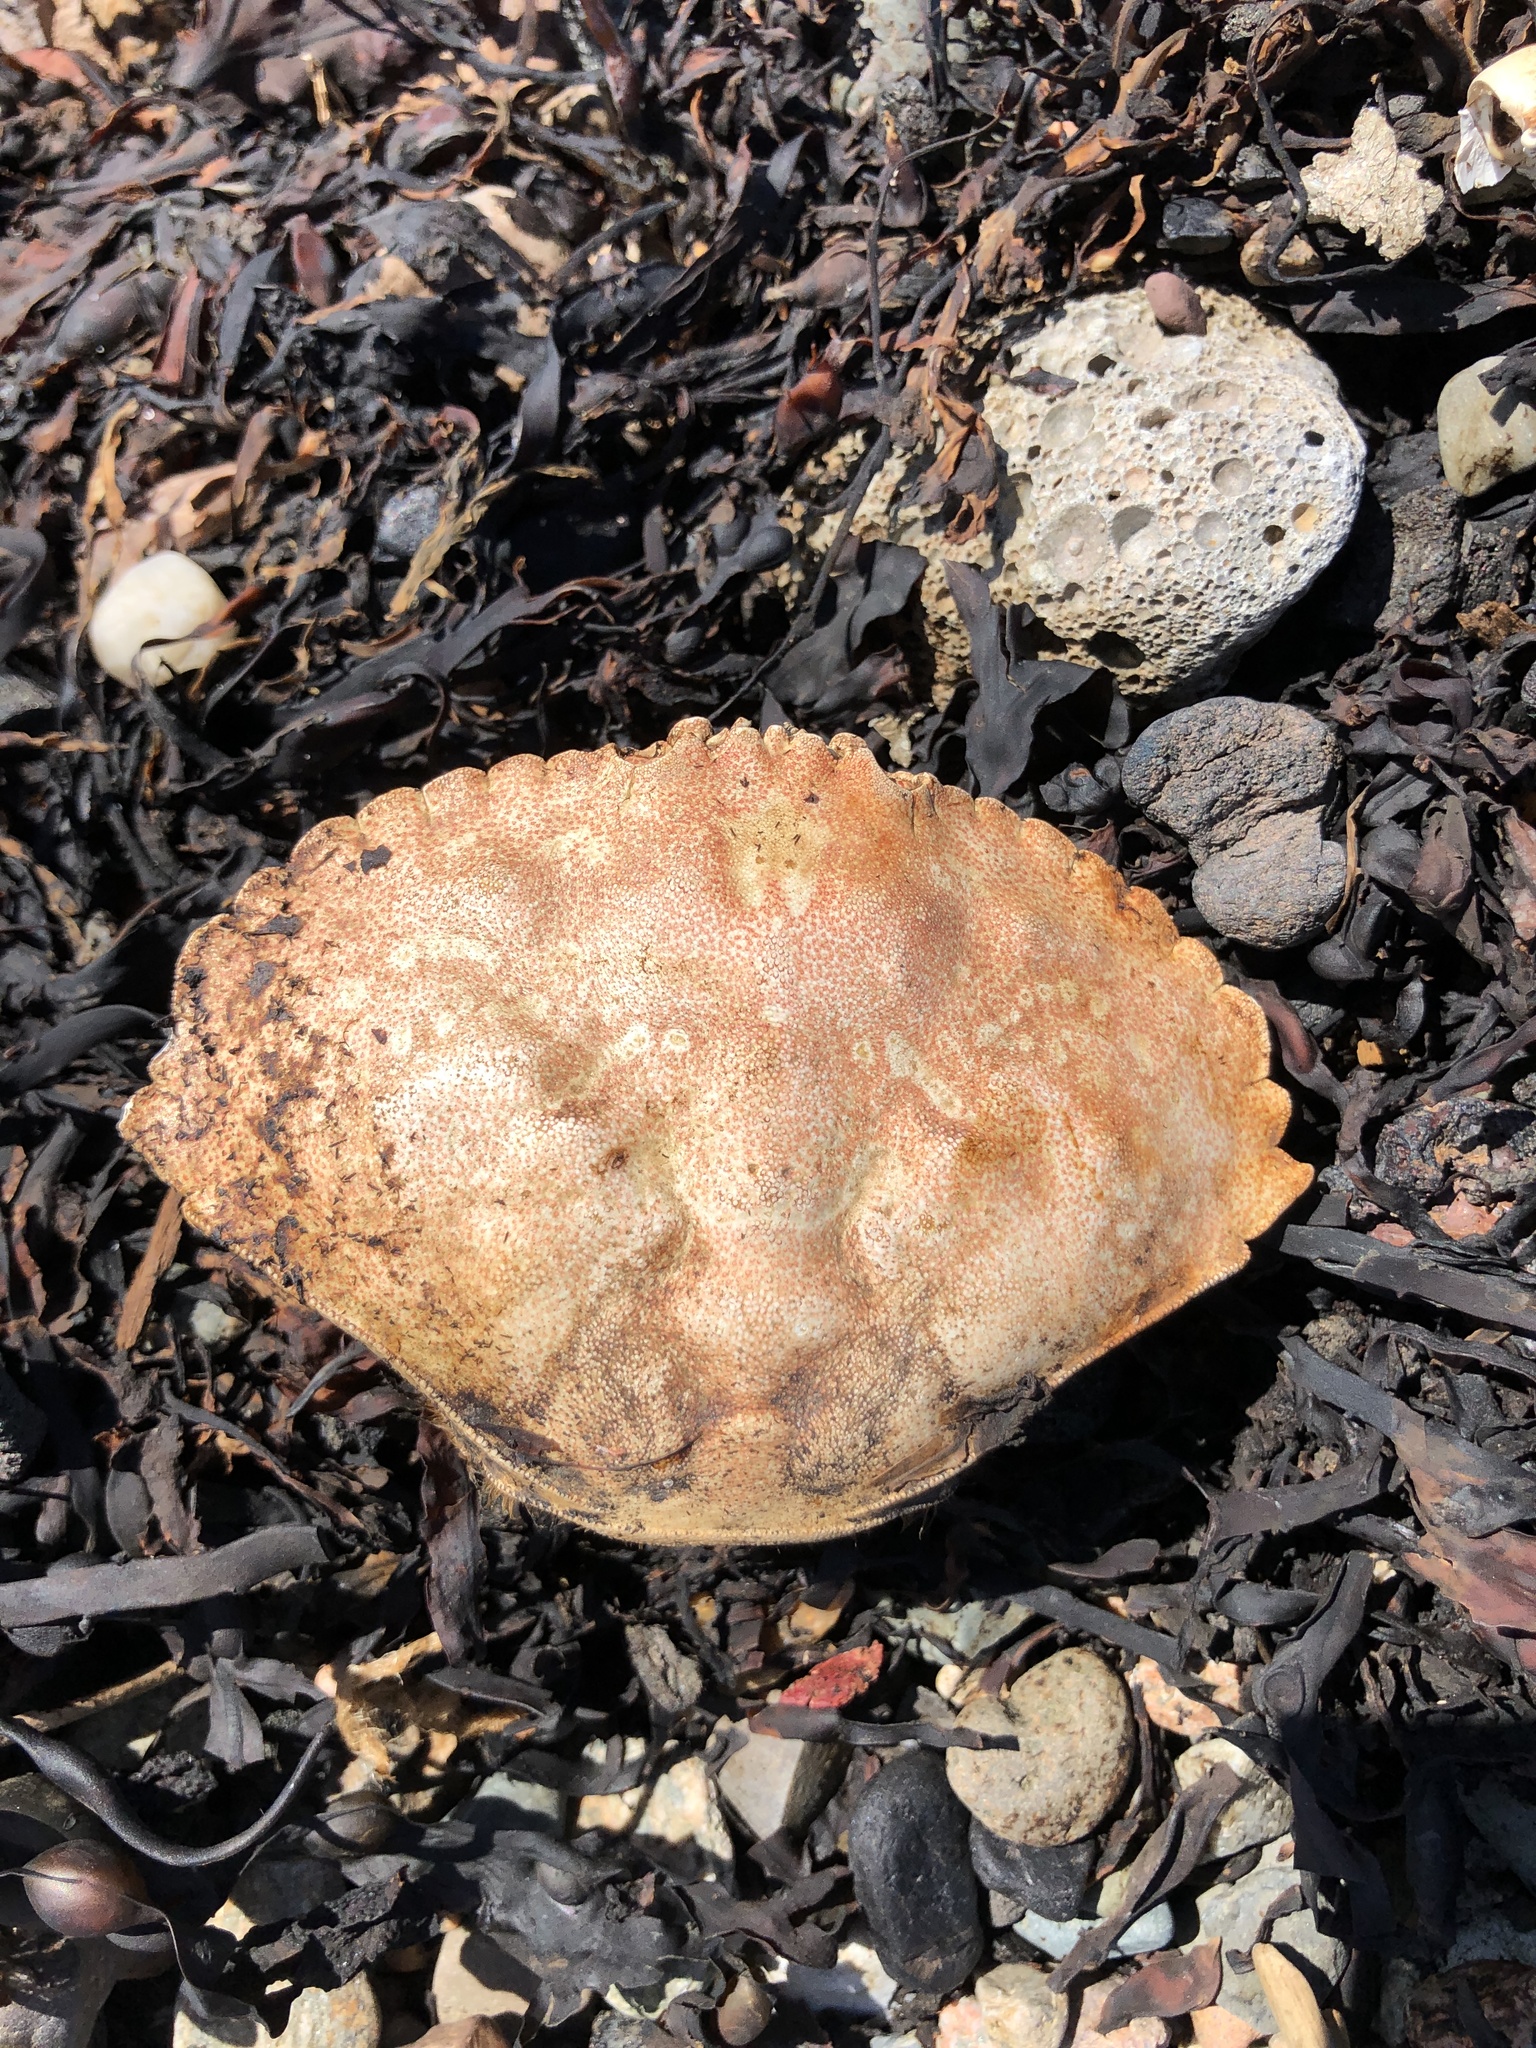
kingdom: Animalia
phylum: Arthropoda
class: Malacostraca
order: Decapoda
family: Cancridae
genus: Cancer
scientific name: Cancer irroratus
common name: Atlantic rock crab
